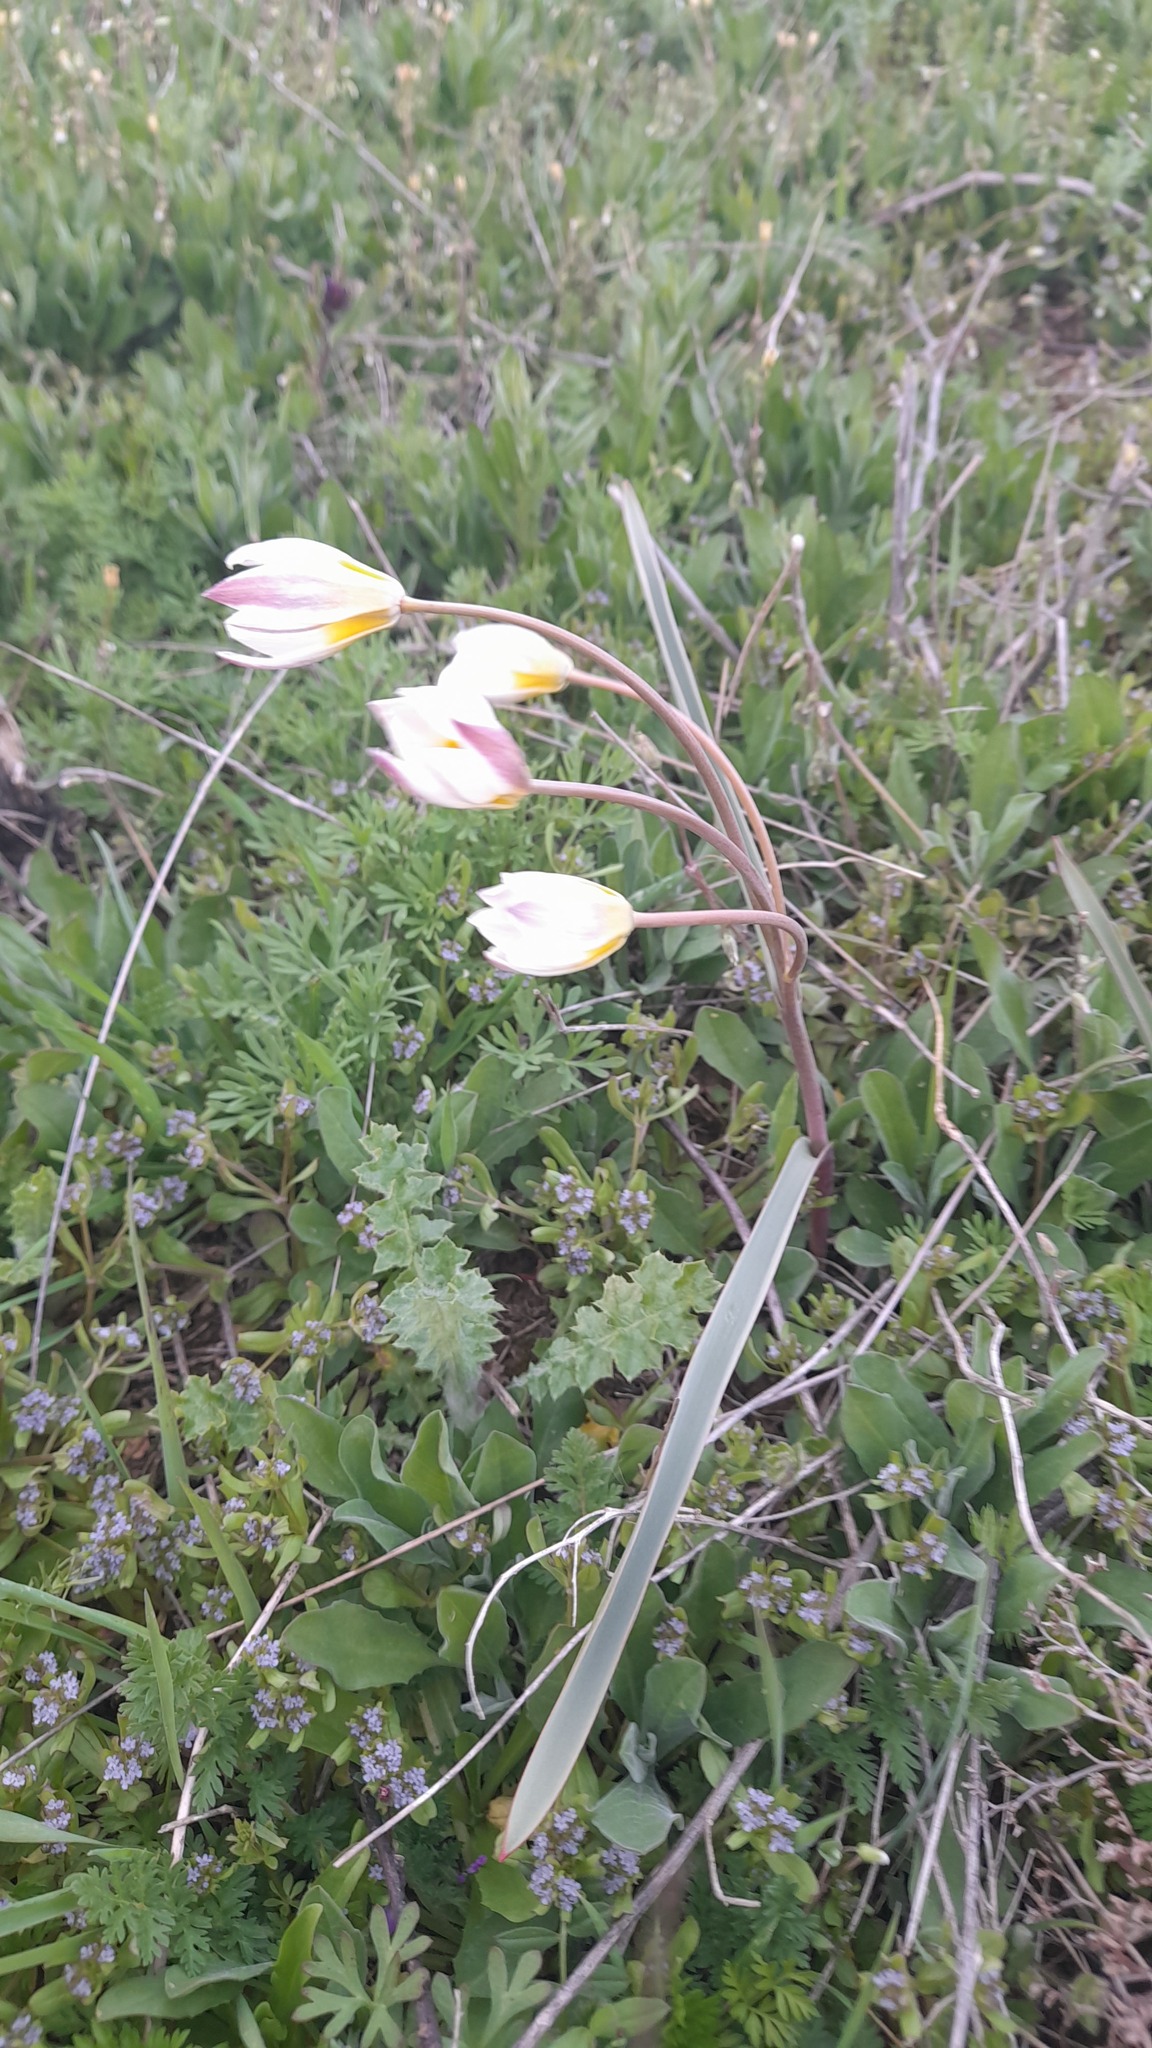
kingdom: Plantae
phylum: Tracheophyta
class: Liliopsida
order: Liliales
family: Liliaceae
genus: Tulipa
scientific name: Tulipa biflora
